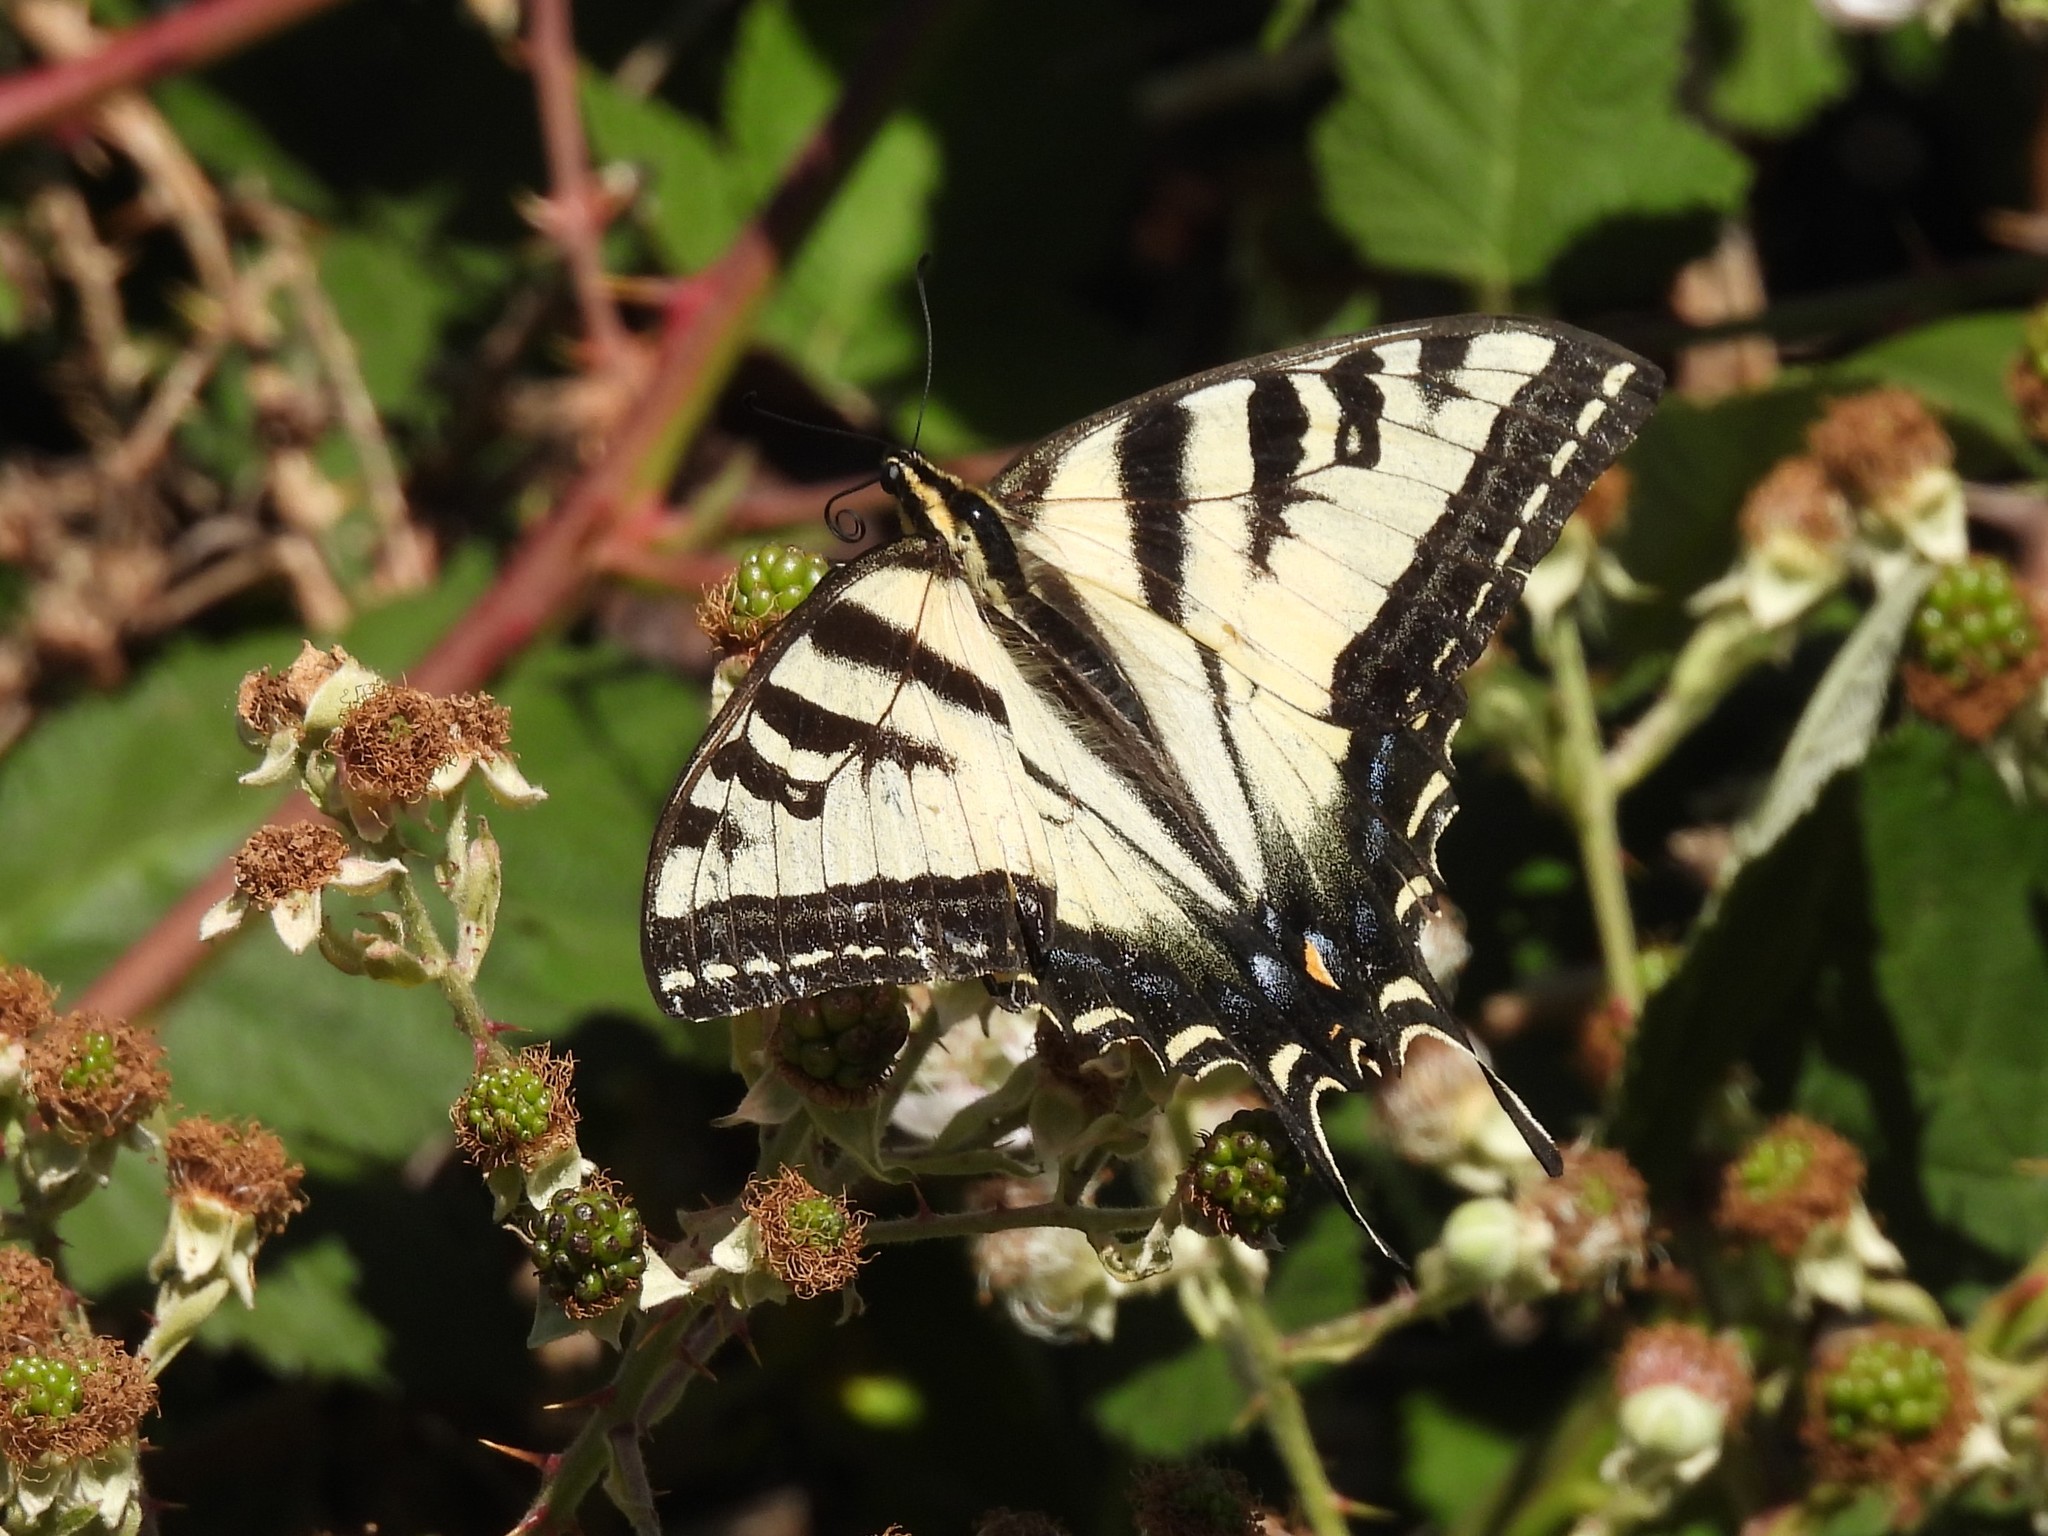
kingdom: Animalia
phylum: Arthropoda
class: Insecta
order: Lepidoptera
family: Papilionidae
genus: Papilio
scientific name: Papilio rutulus
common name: Western tiger swallowtail
